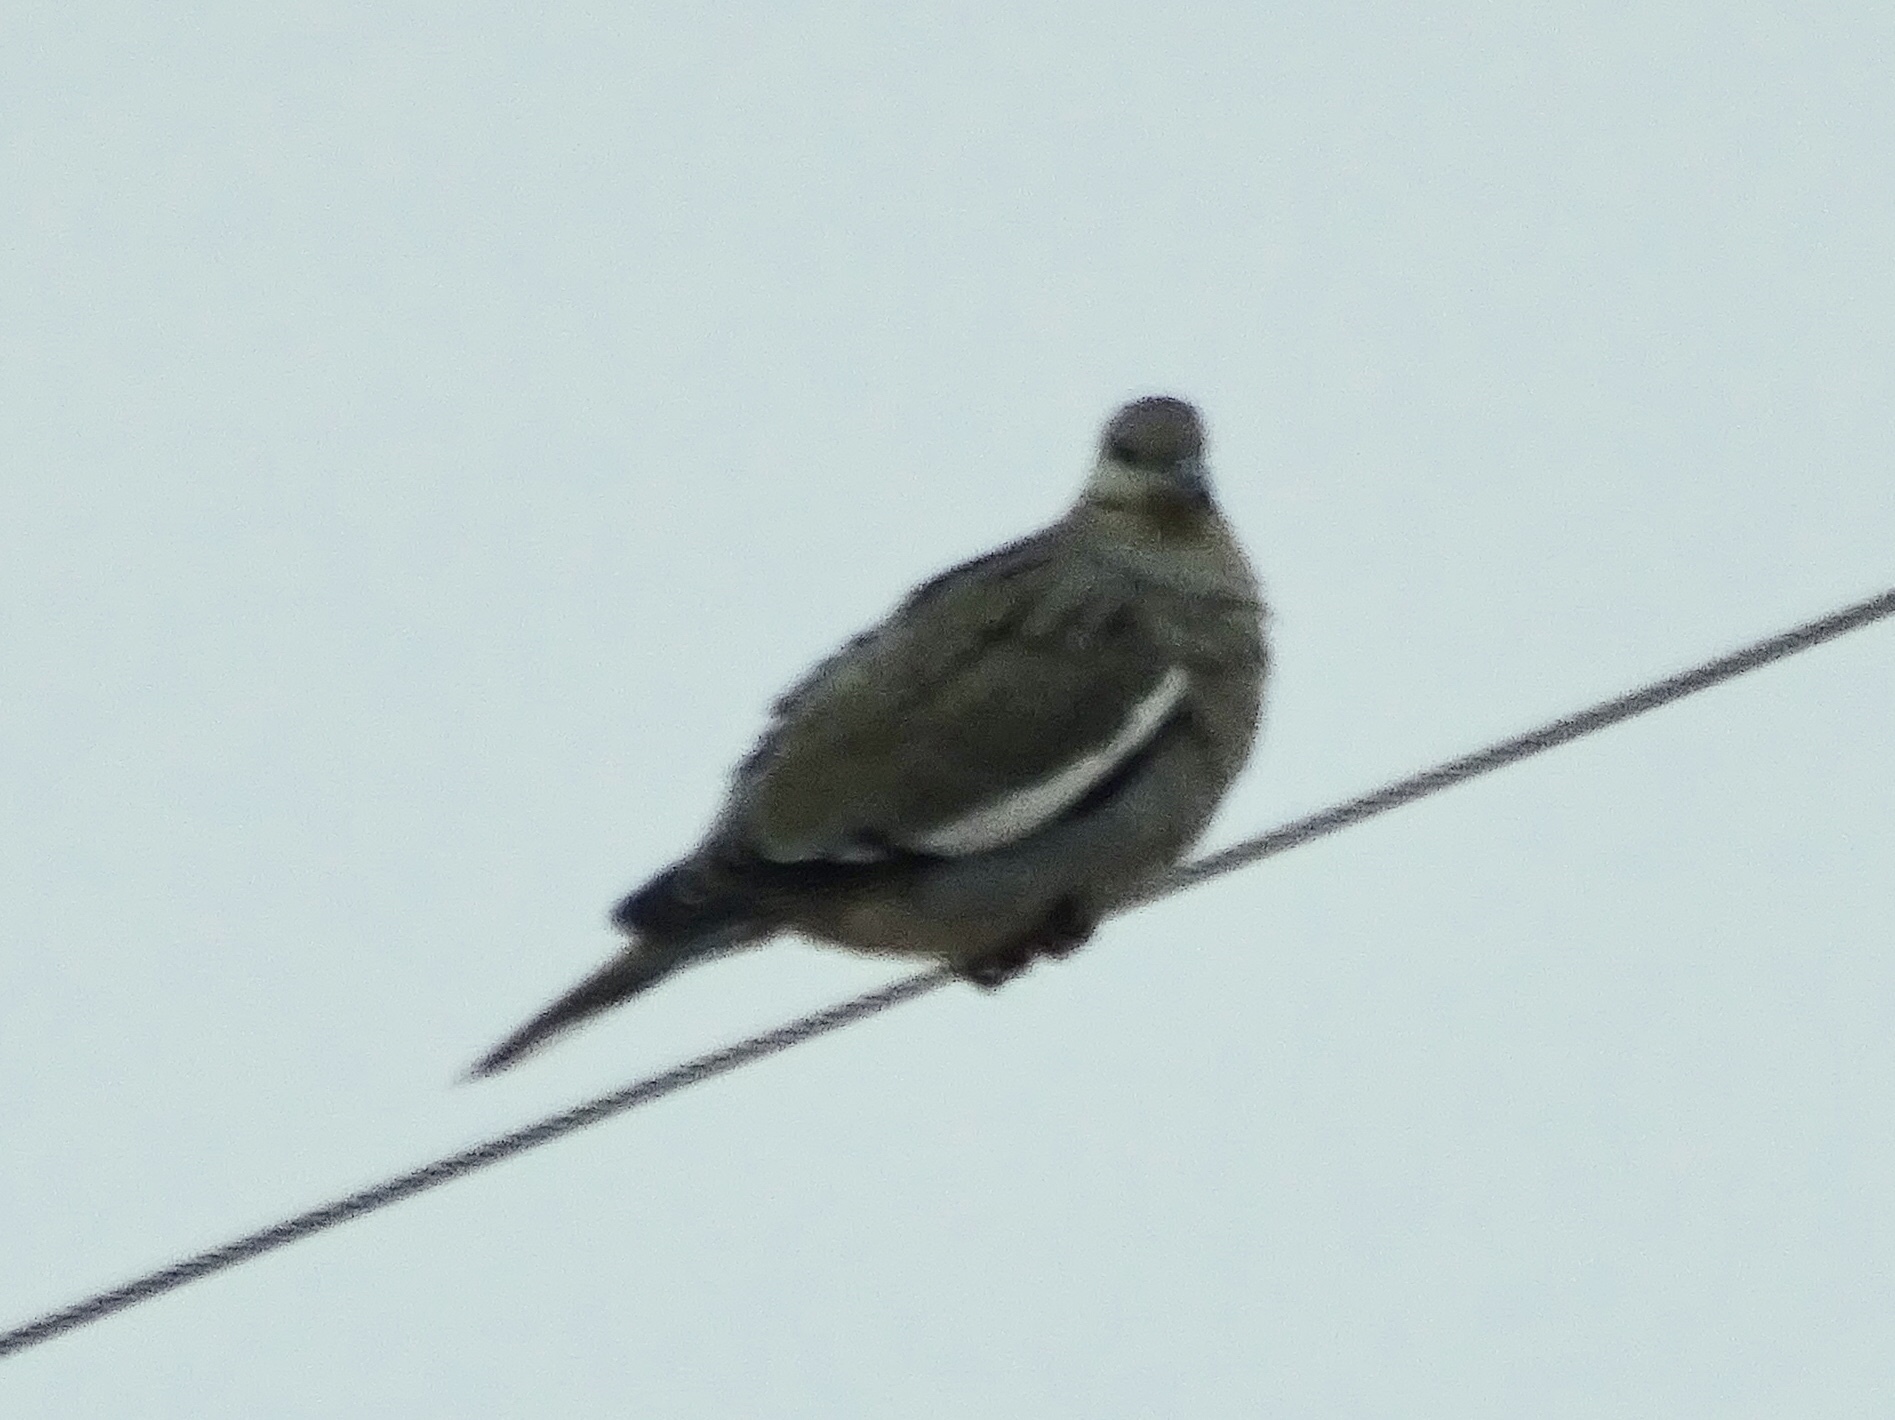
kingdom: Animalia
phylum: Chordata
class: Aves
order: Columbiformes
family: Columbidae
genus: Zenaida
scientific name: Zenaida asiatica
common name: White-winged dove
